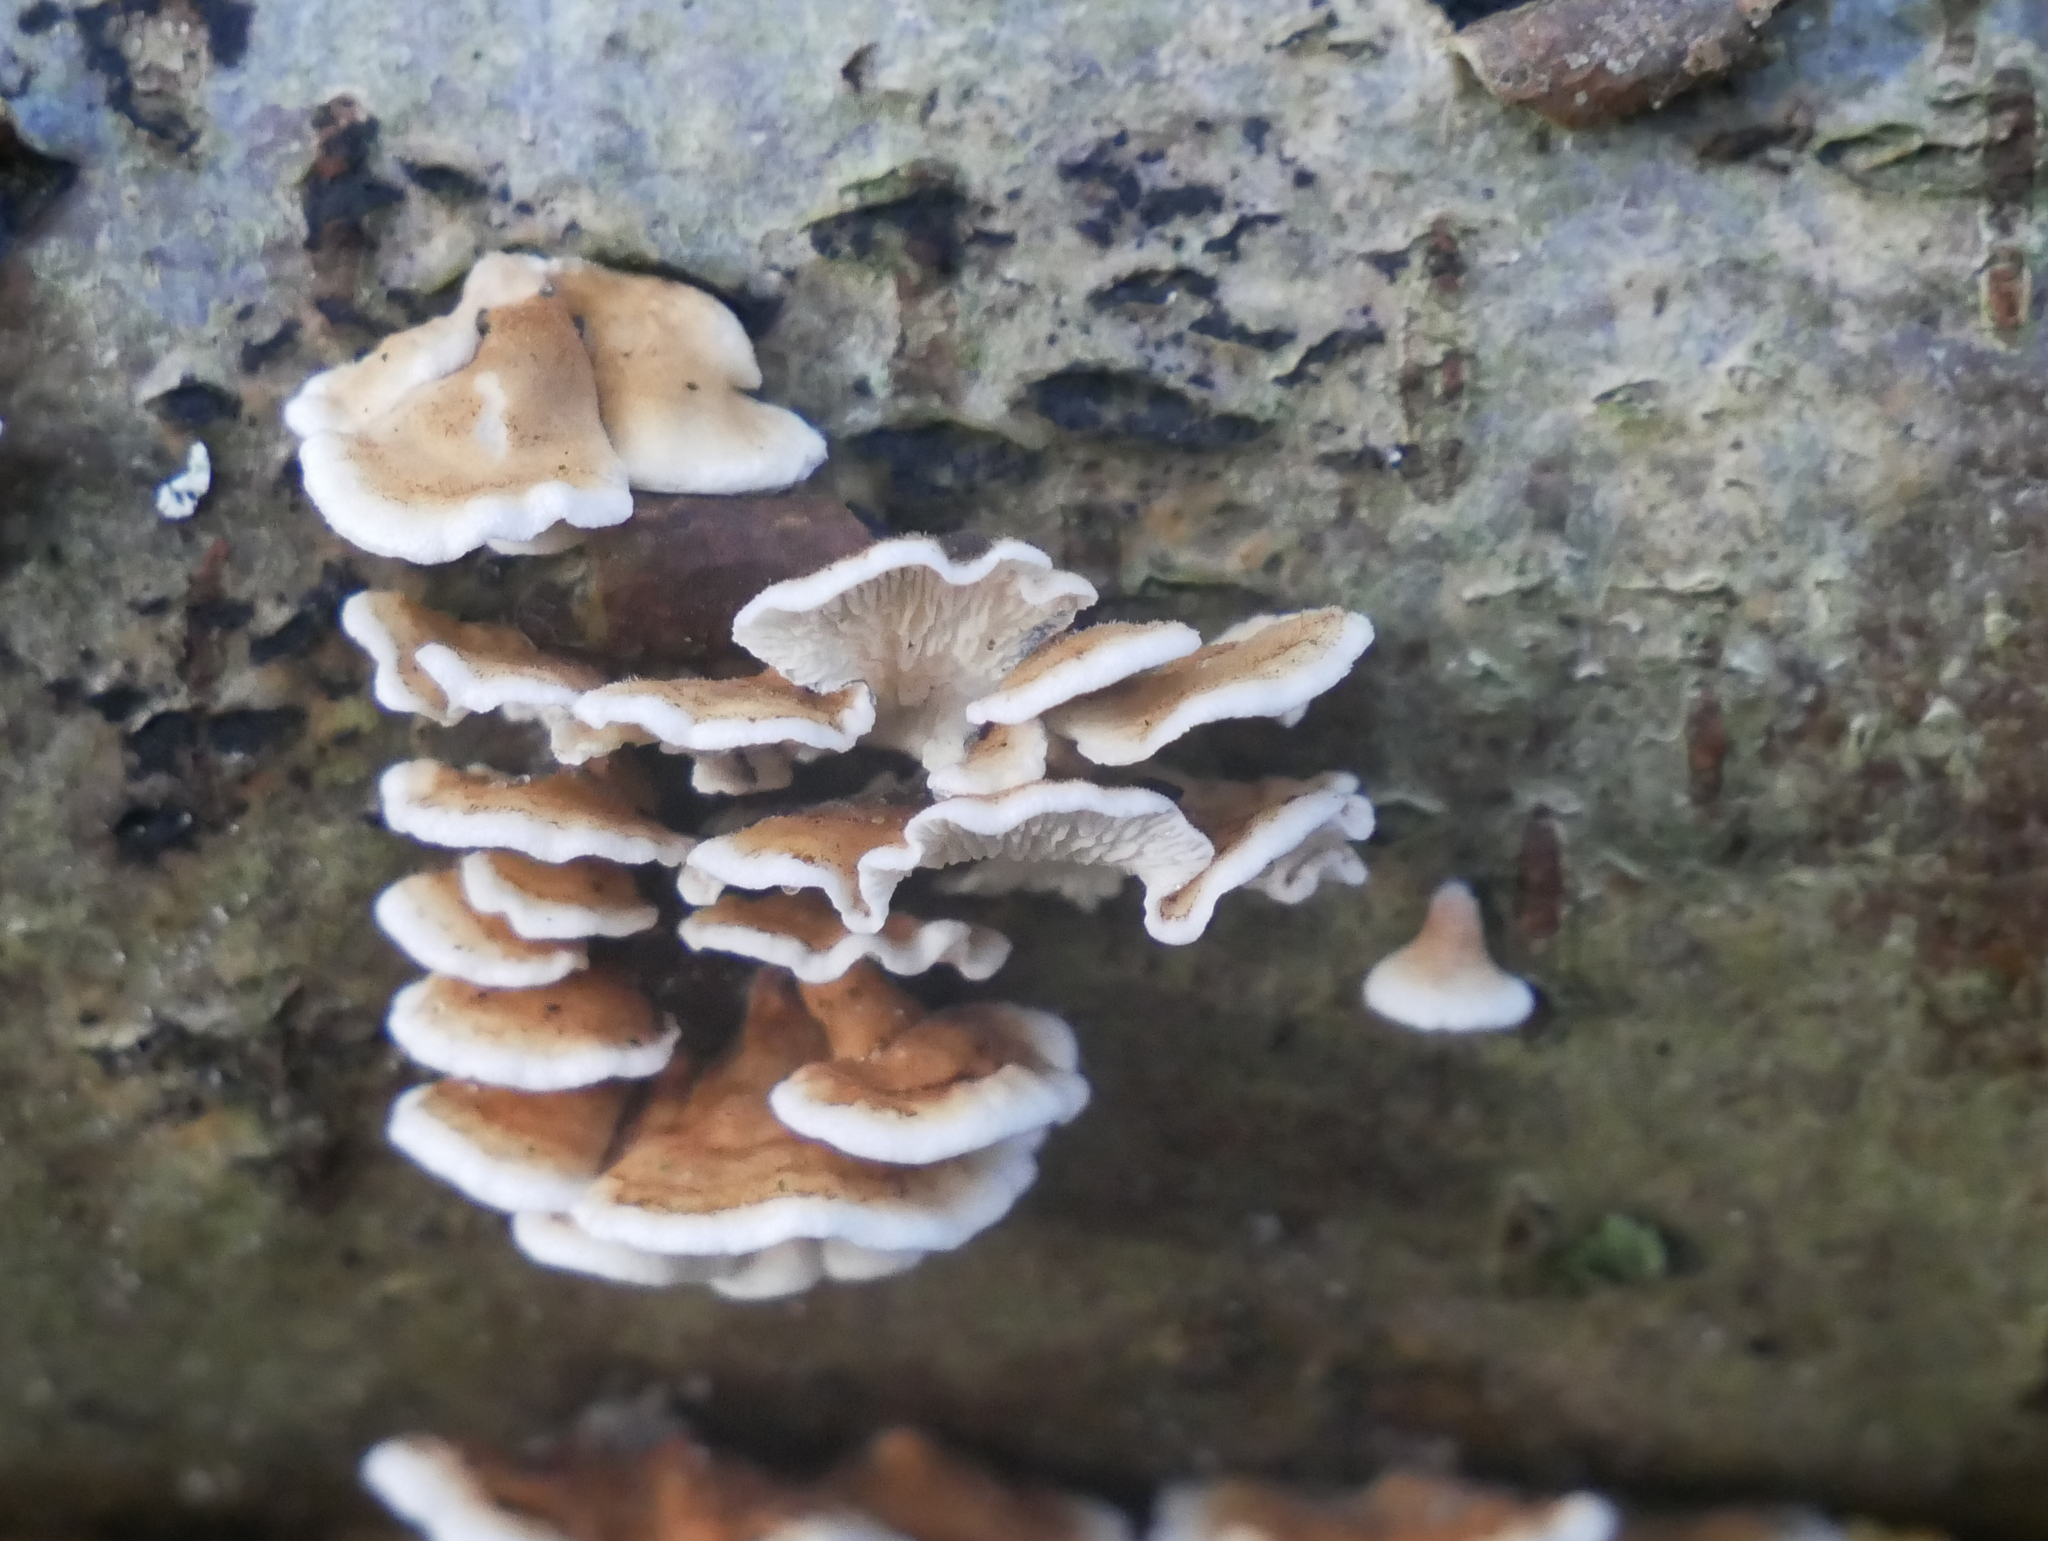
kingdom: Fungi
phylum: Basidiomycota
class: Agaricomycetes
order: Amylocorticiales
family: Amylocorticiaceae
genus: Plicaturopsis
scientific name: Plicaturopsis crispa
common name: Crimped gill
